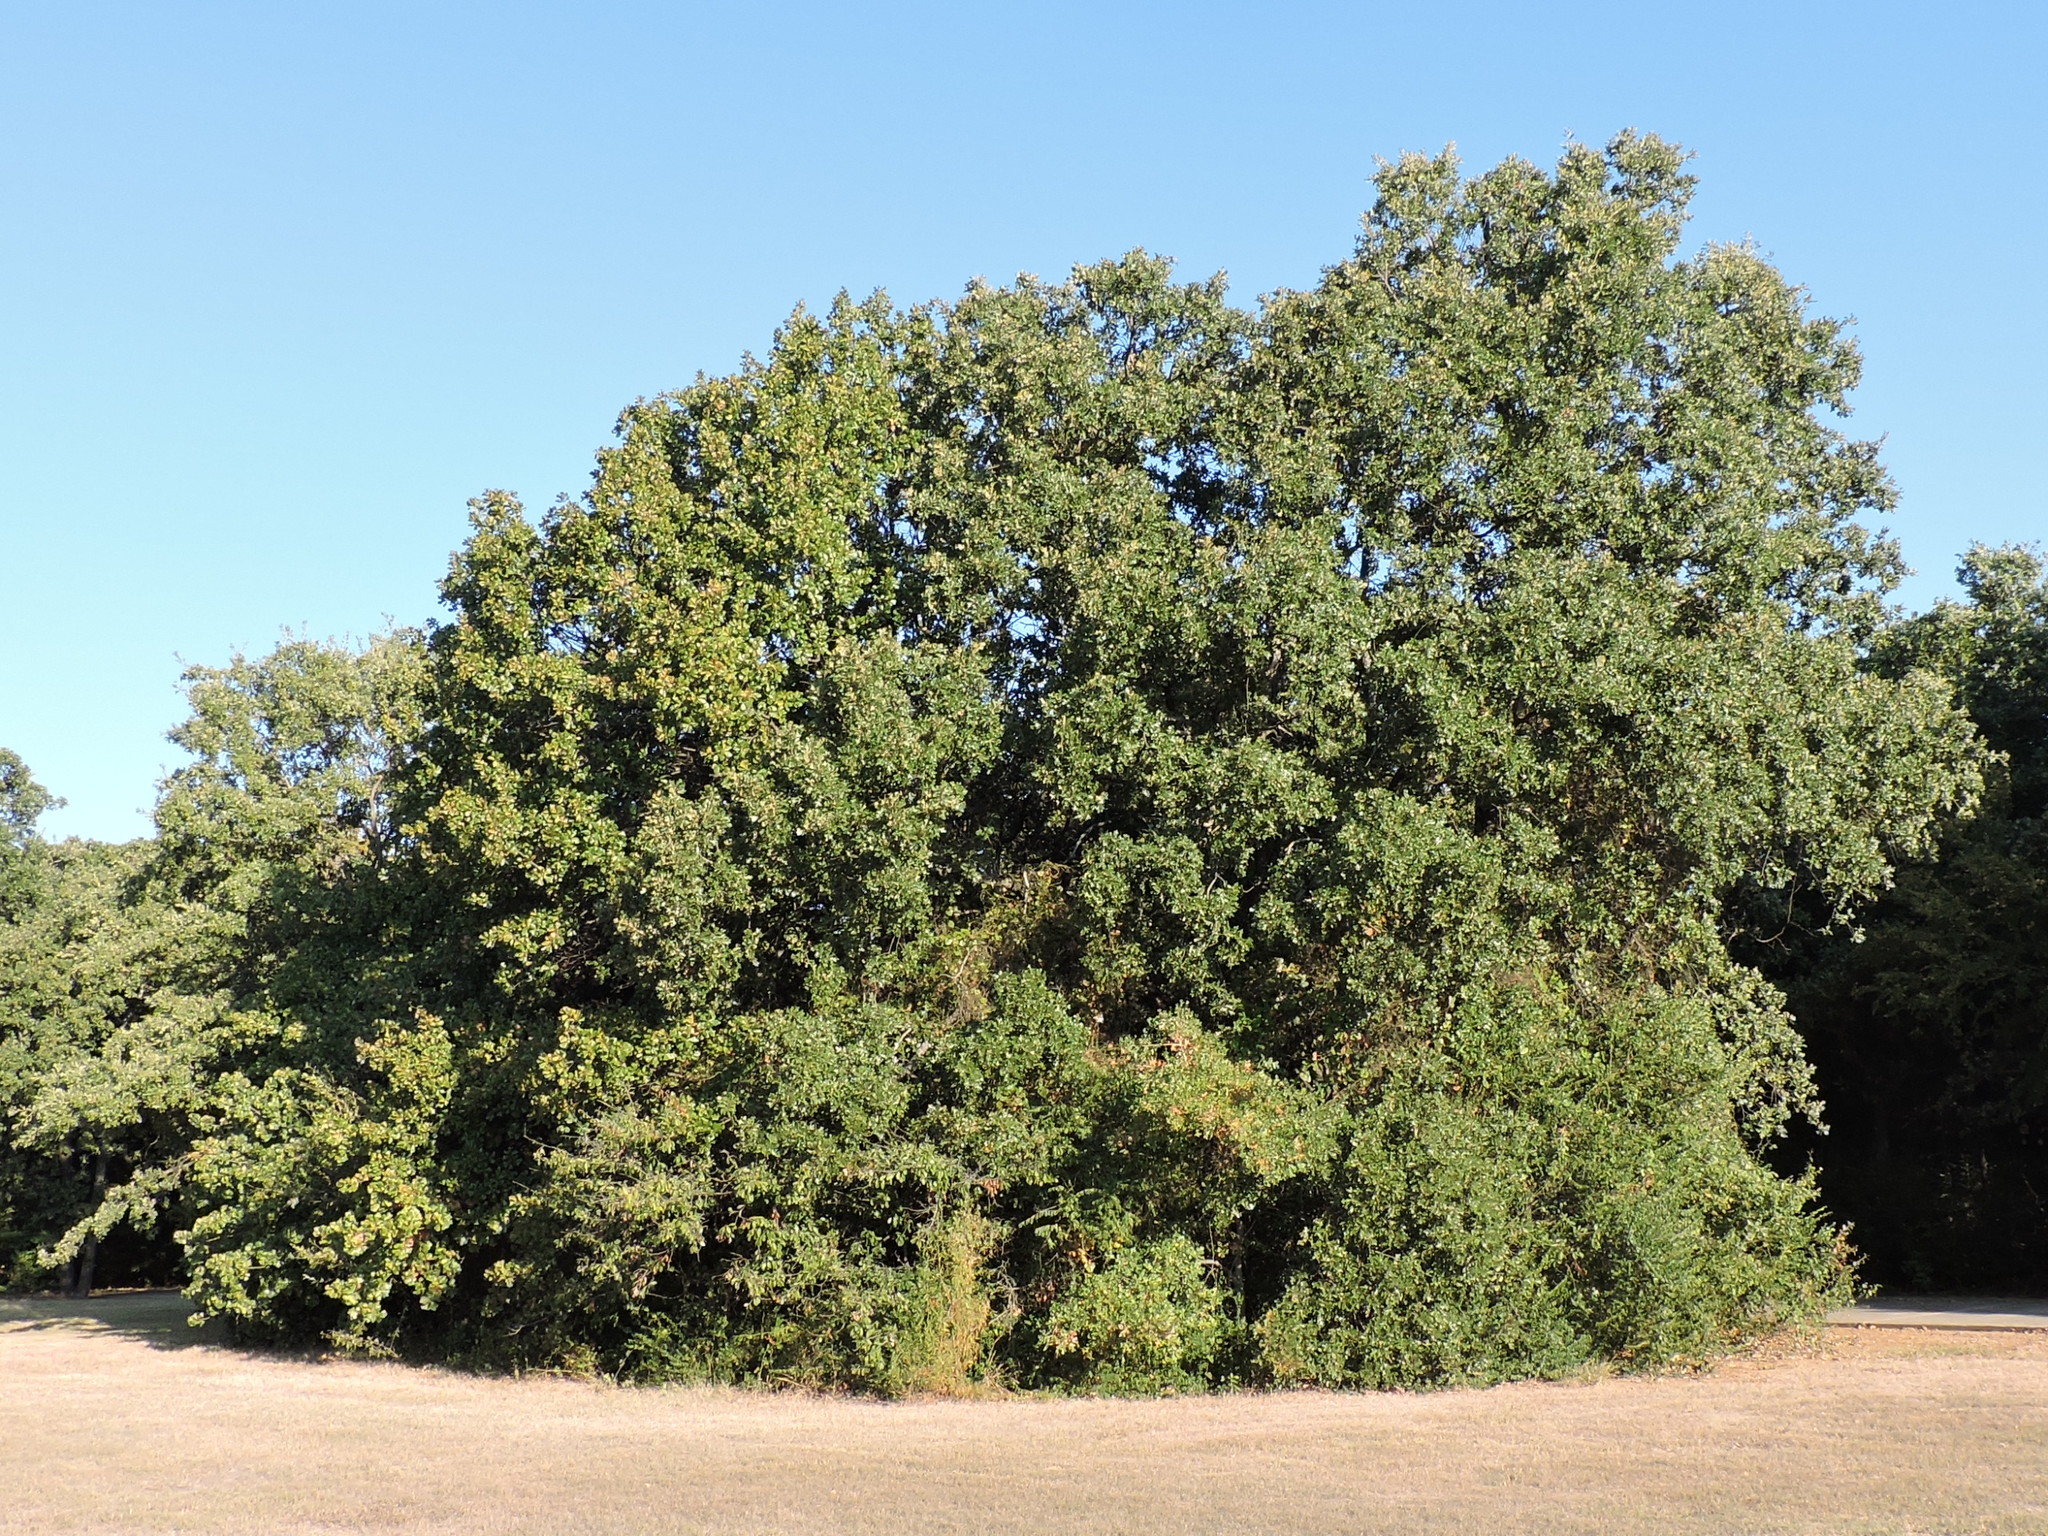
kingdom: Plantae
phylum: Tracheophyta
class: Magnoliopsida
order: Fagales
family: Fagaceae
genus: Quercus
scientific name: Quercus stellata
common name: Post oak
